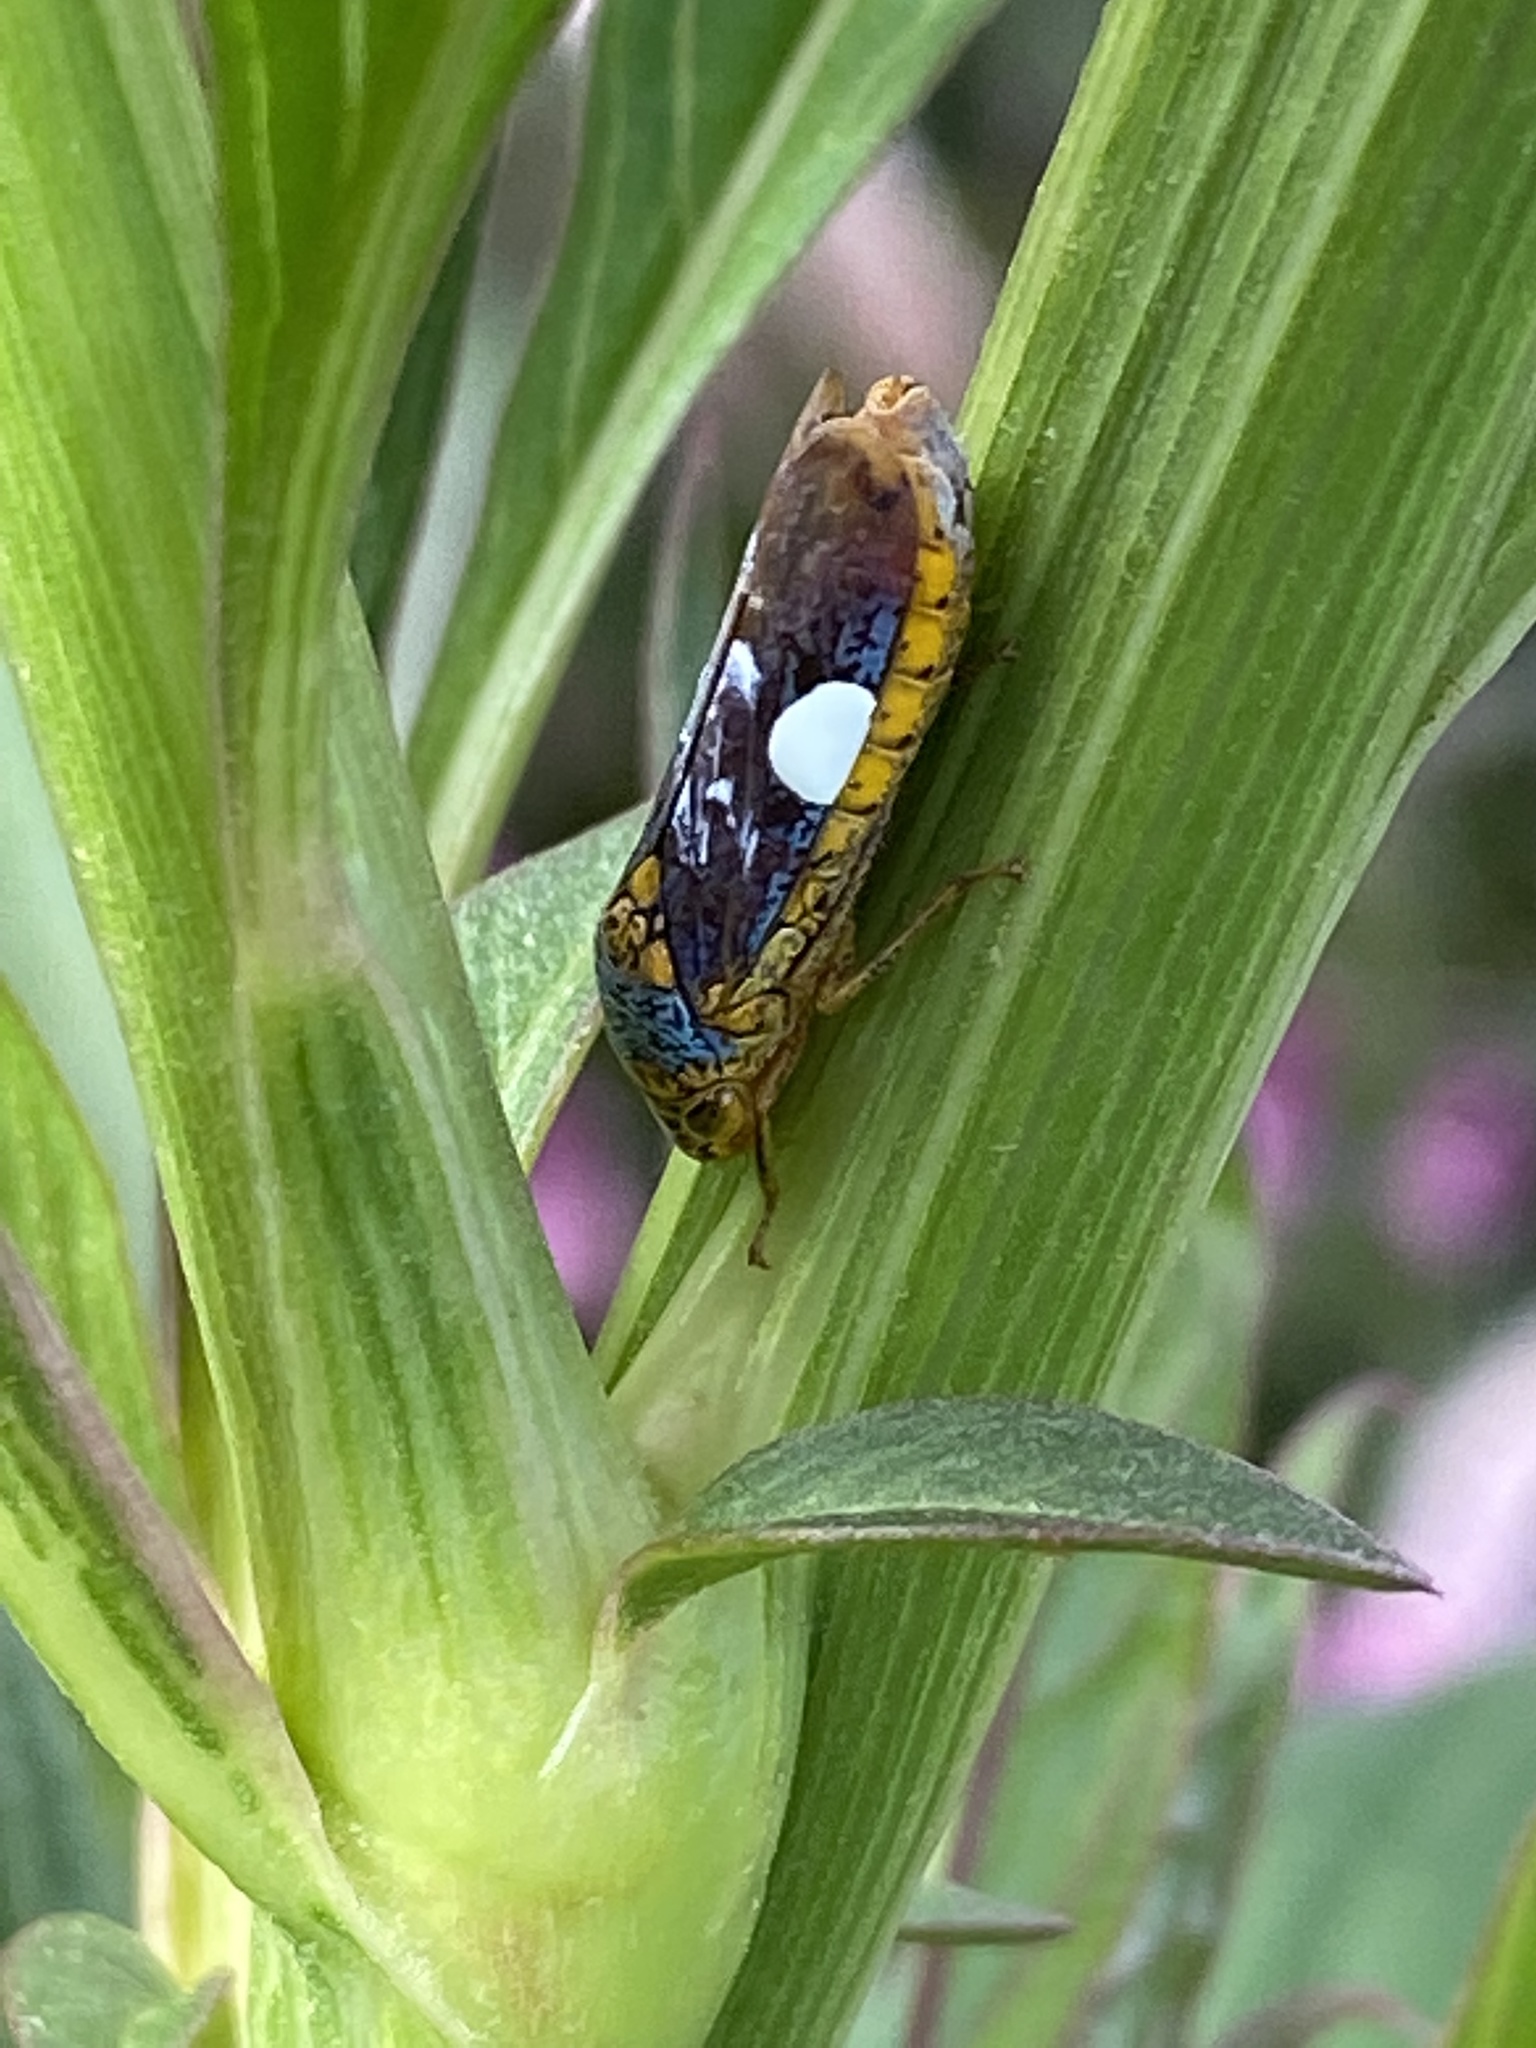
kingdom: Animalia
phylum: Arthropoda
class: Insecta
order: Hemiptera
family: Cicadellidae
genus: Oncometopia
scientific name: Oncometopia orbona
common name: Broad-headed sharpshooter
